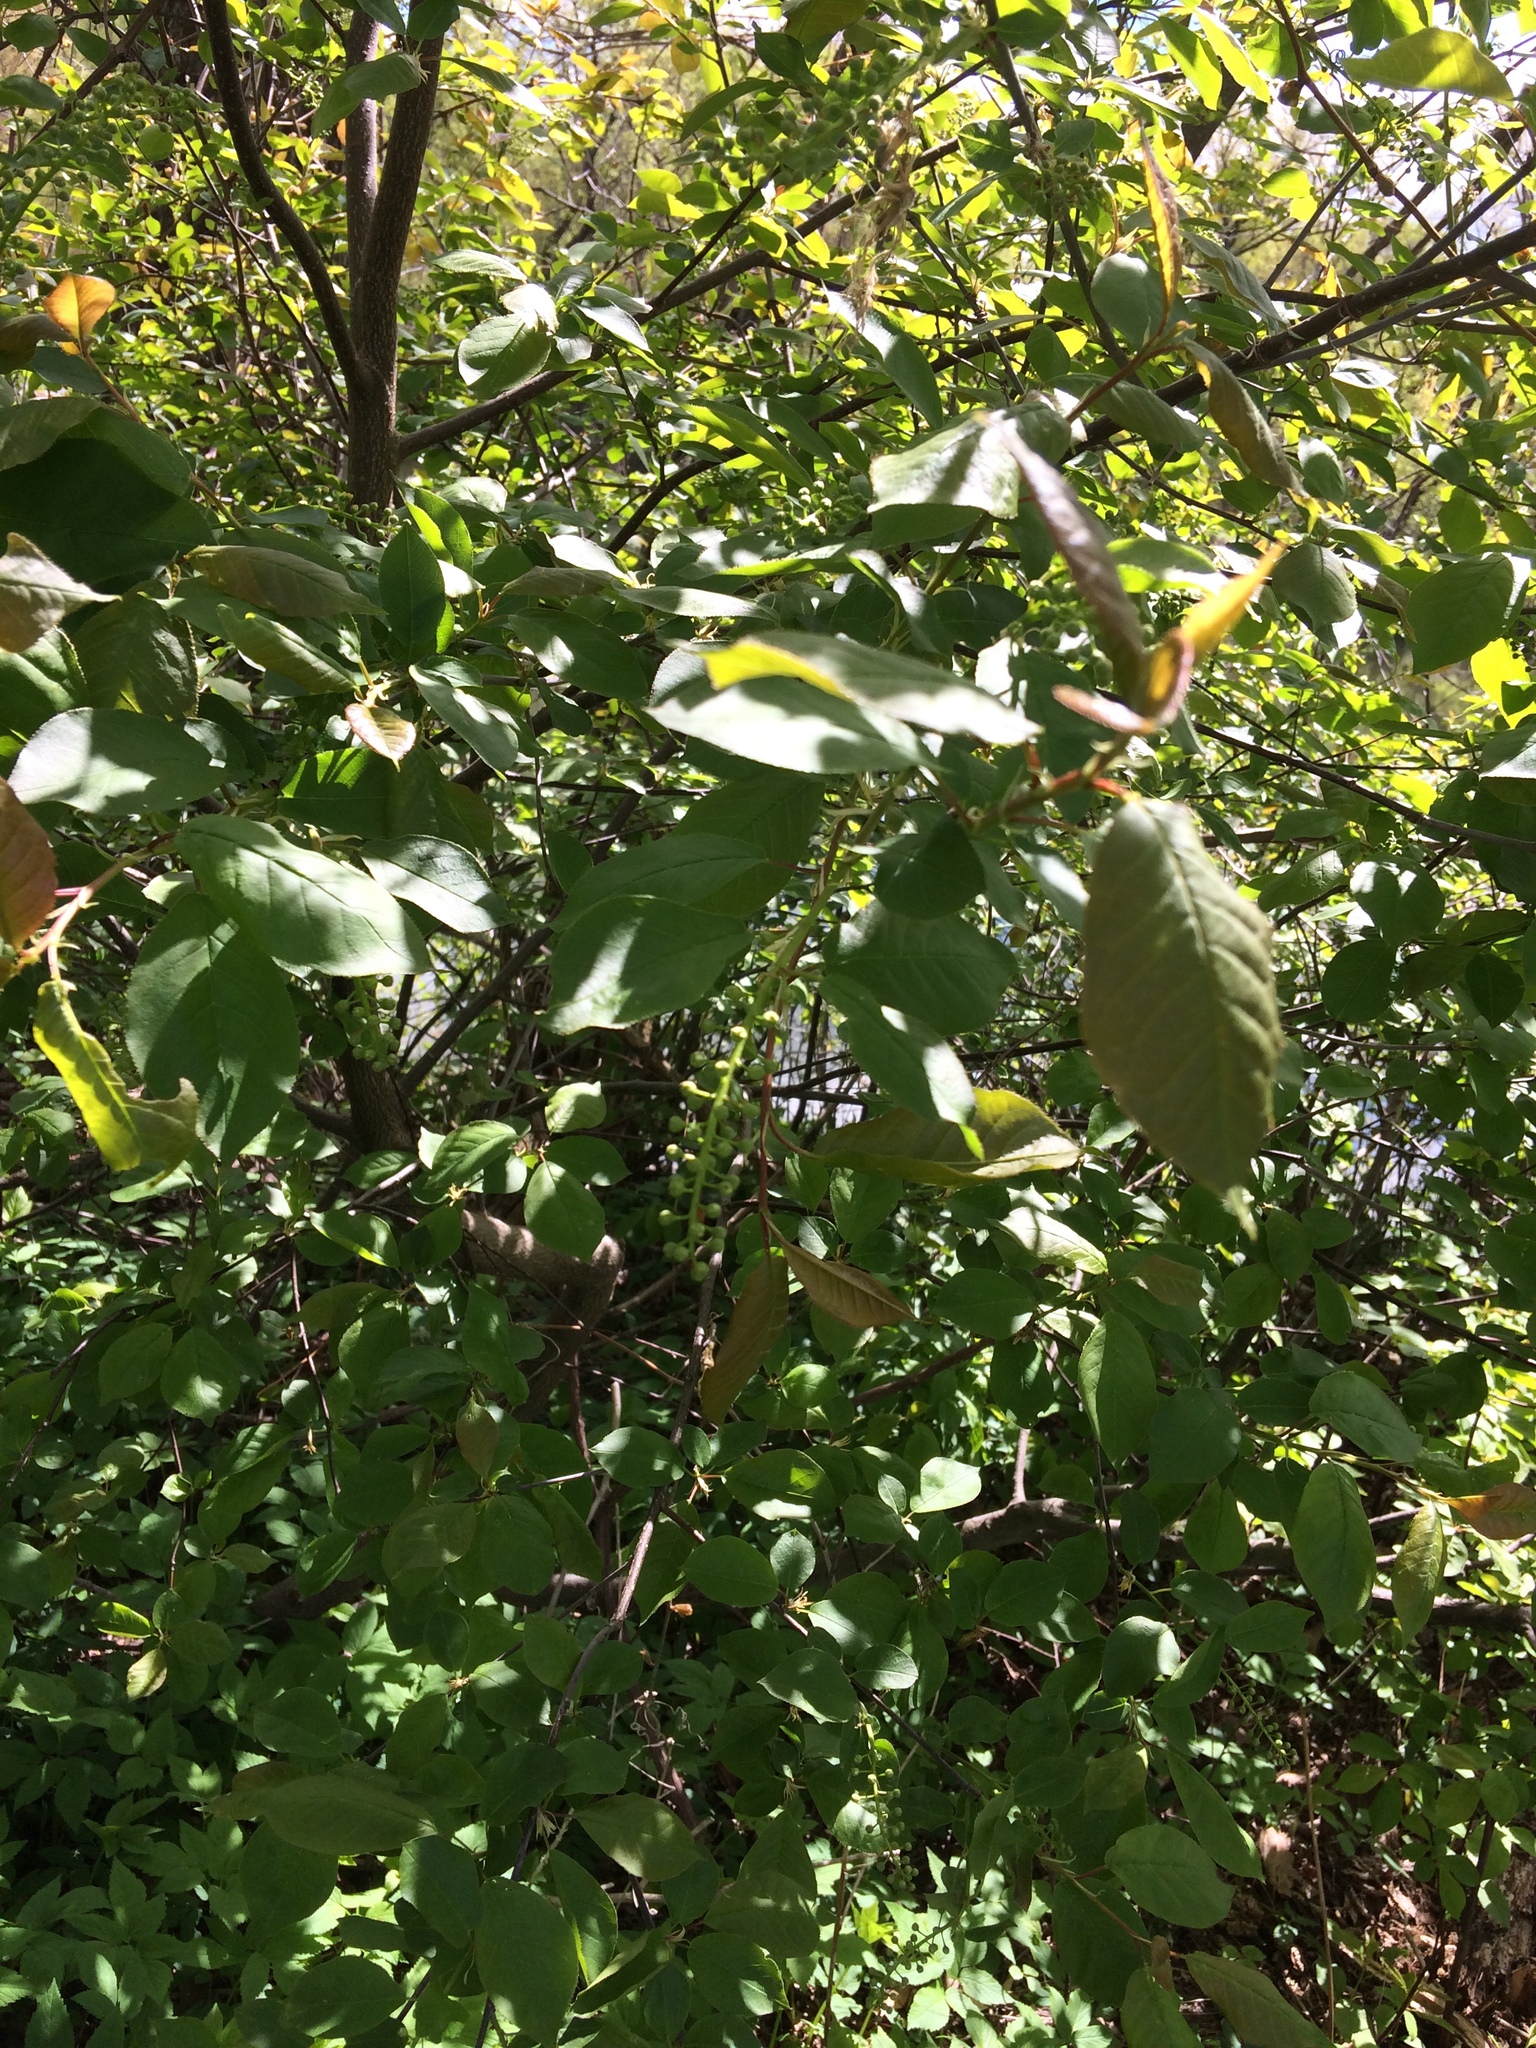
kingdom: Plantae
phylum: Tracheophyta
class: Magnoliopsida
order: Rosales
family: Rosaceae
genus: Prunus
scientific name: Prunus virginiana
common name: Chokecherry
